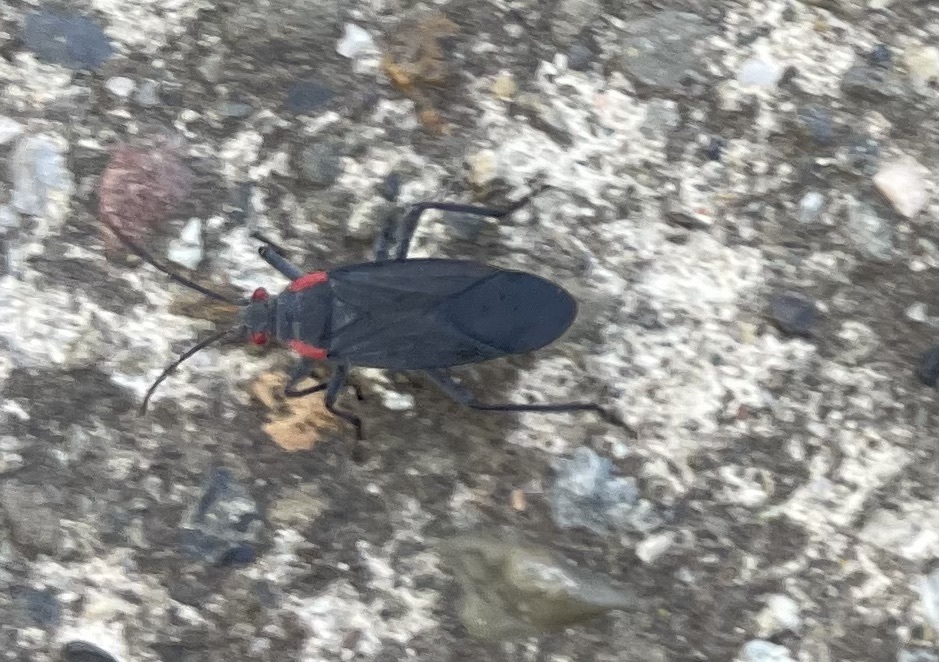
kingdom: Animalia
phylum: Arthropoda
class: Insecta
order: Hemiptera
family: Rhopalidae
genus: Jadera
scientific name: Jadera haematoloma
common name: Red-shouldered bug
